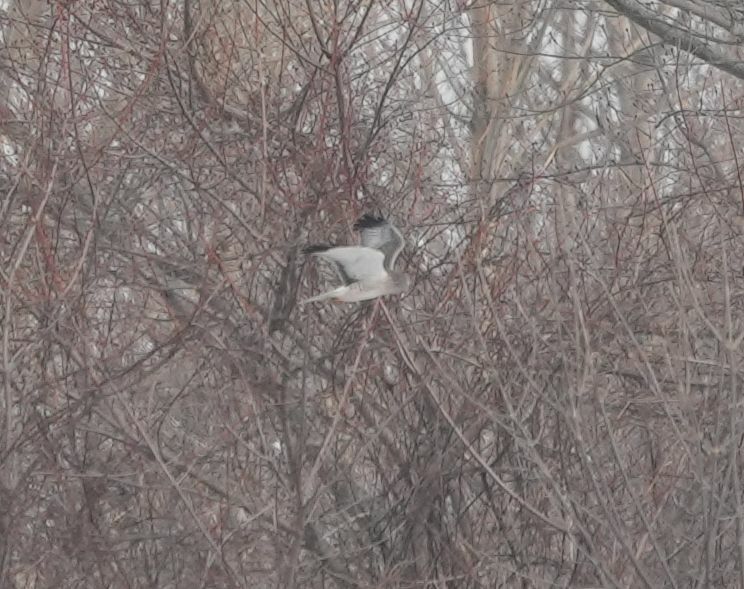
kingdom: Animalia
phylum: Chordata
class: Aves
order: Accipitriformes
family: Accipitridae
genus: Circus
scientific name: Circus cyaneus
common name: Hen harrier
